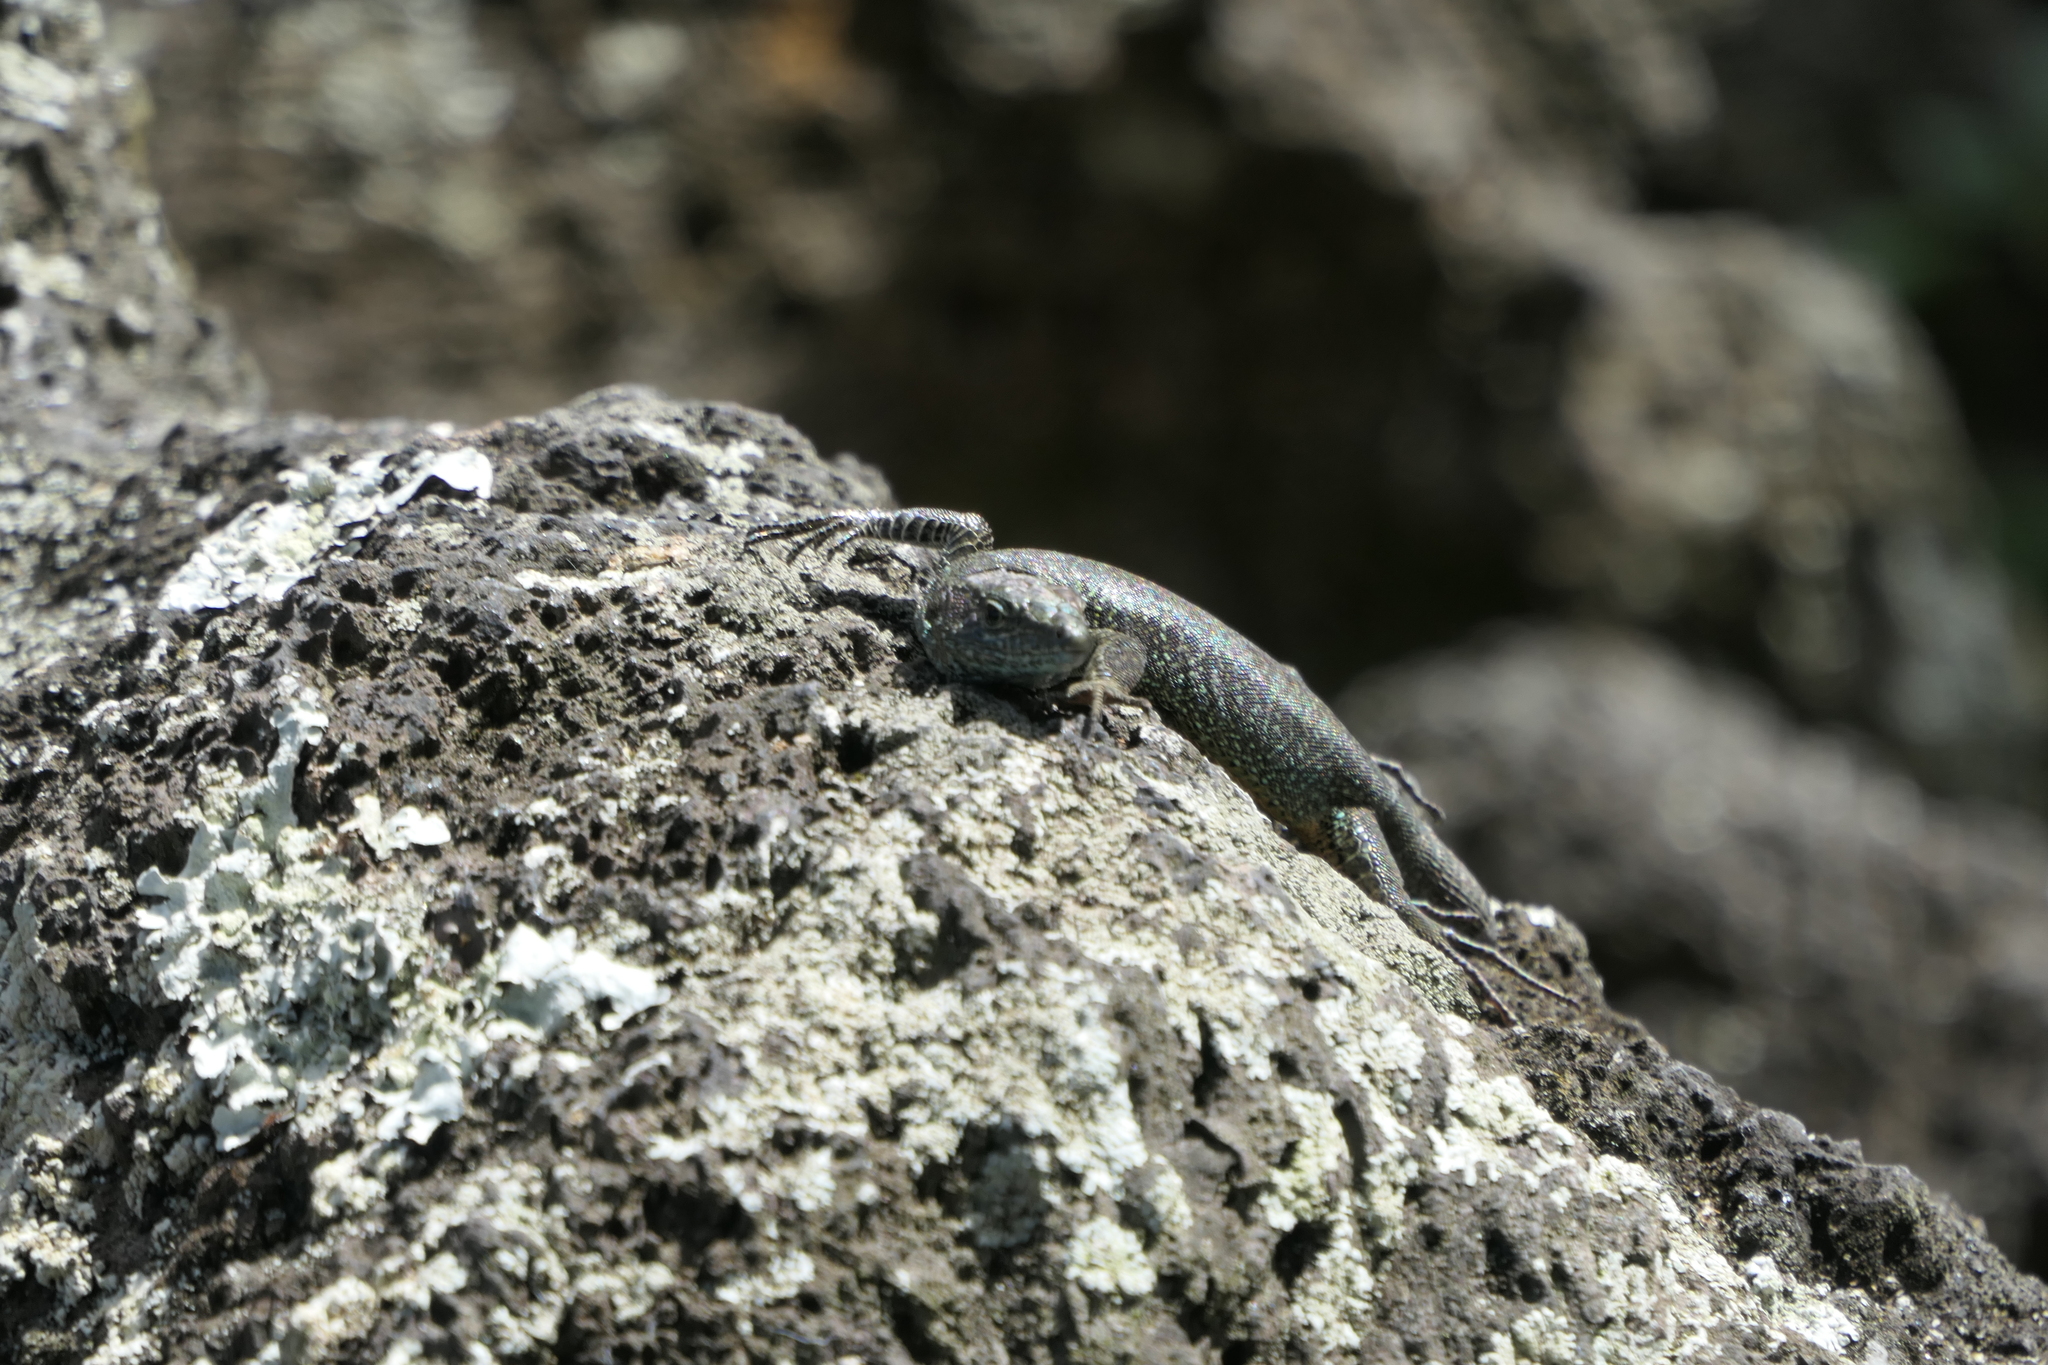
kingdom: Animalia
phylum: Chordata
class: Squamata
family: Lacertidae
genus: Teira
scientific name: Teira dugesii
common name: Madeira lizard
